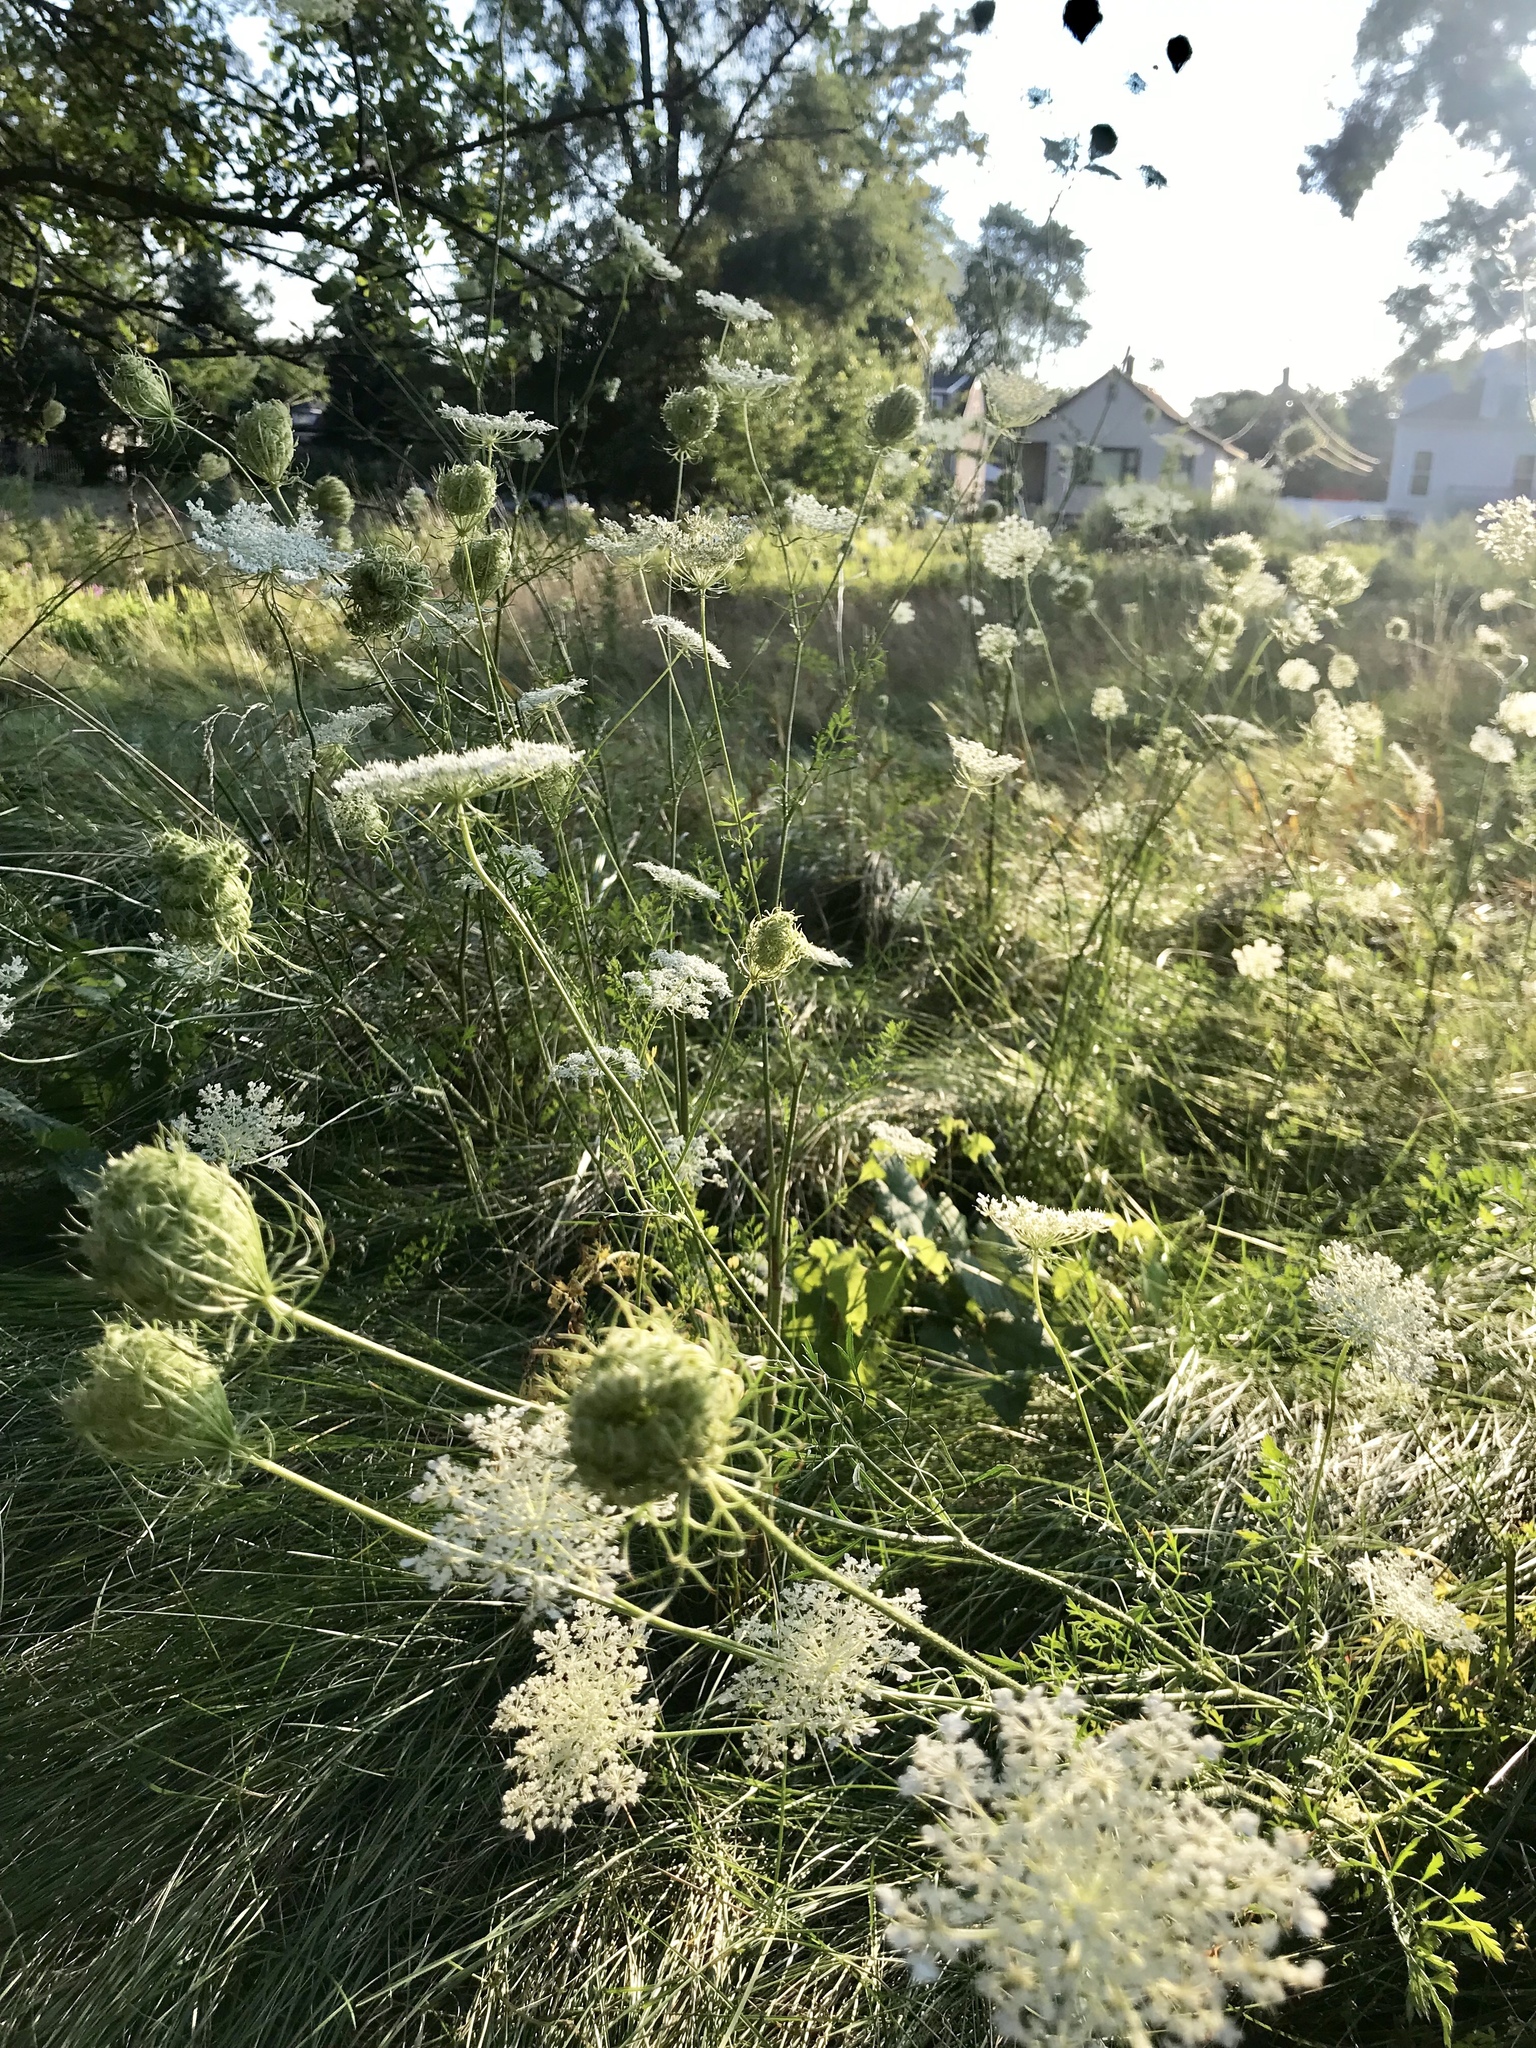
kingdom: Plantae
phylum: Tracheophyta
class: Magnoliopsida
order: Apiales
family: Apiaceae
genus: Daucus
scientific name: Daucus carota
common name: Wild carrot
